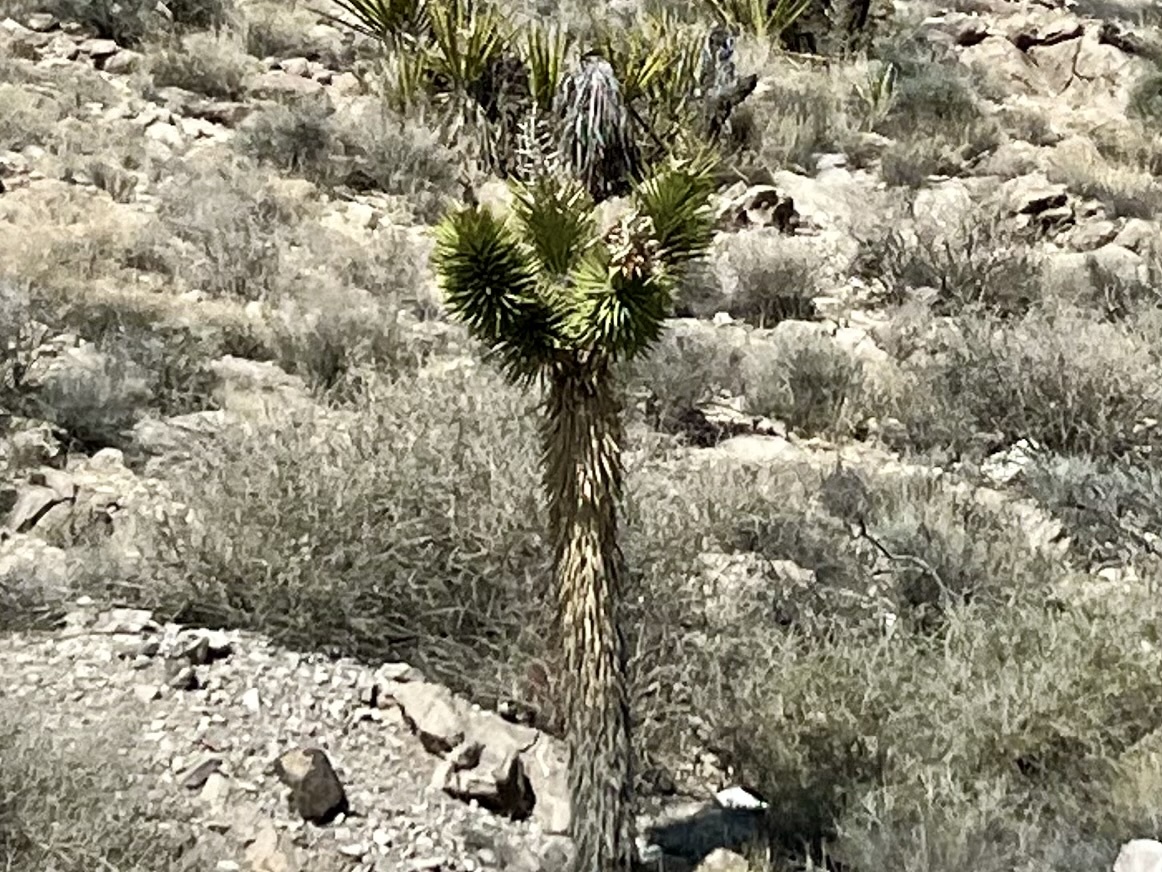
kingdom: Plantae
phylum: Tracheophyta
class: Liliopsida
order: Asparagales
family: Asparagaceae
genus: Yucca
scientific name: Yucca brevifolia
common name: Joshua tree
